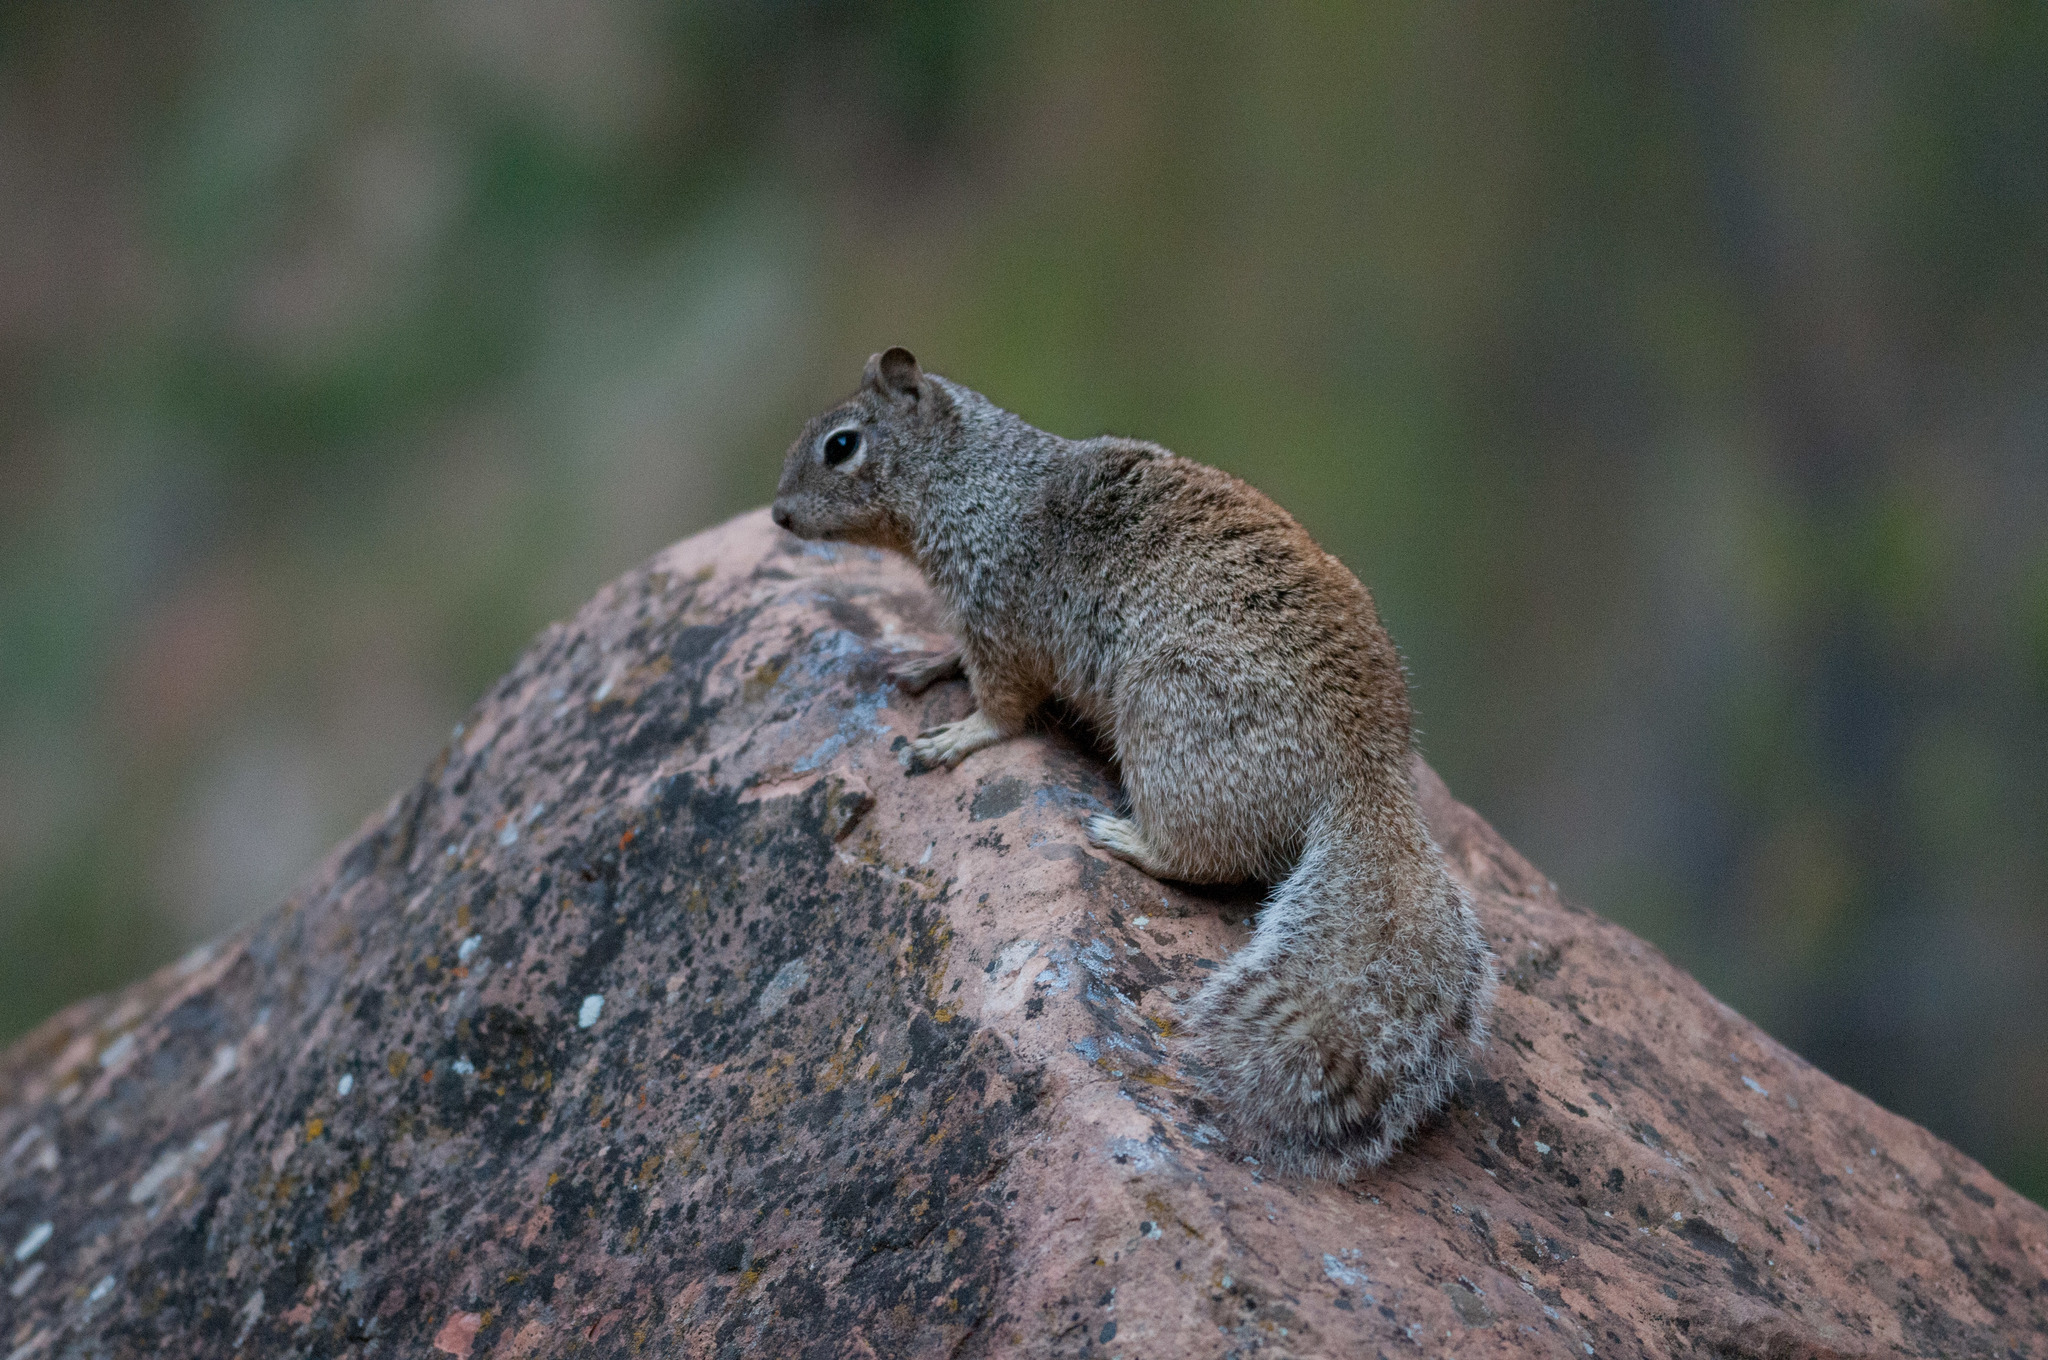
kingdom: Animalia
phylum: Chordata
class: Mammalia
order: Rodentia
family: Sciuridae
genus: Otospermophilus
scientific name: Otospermophilus variegatus
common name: Rock squirrel
